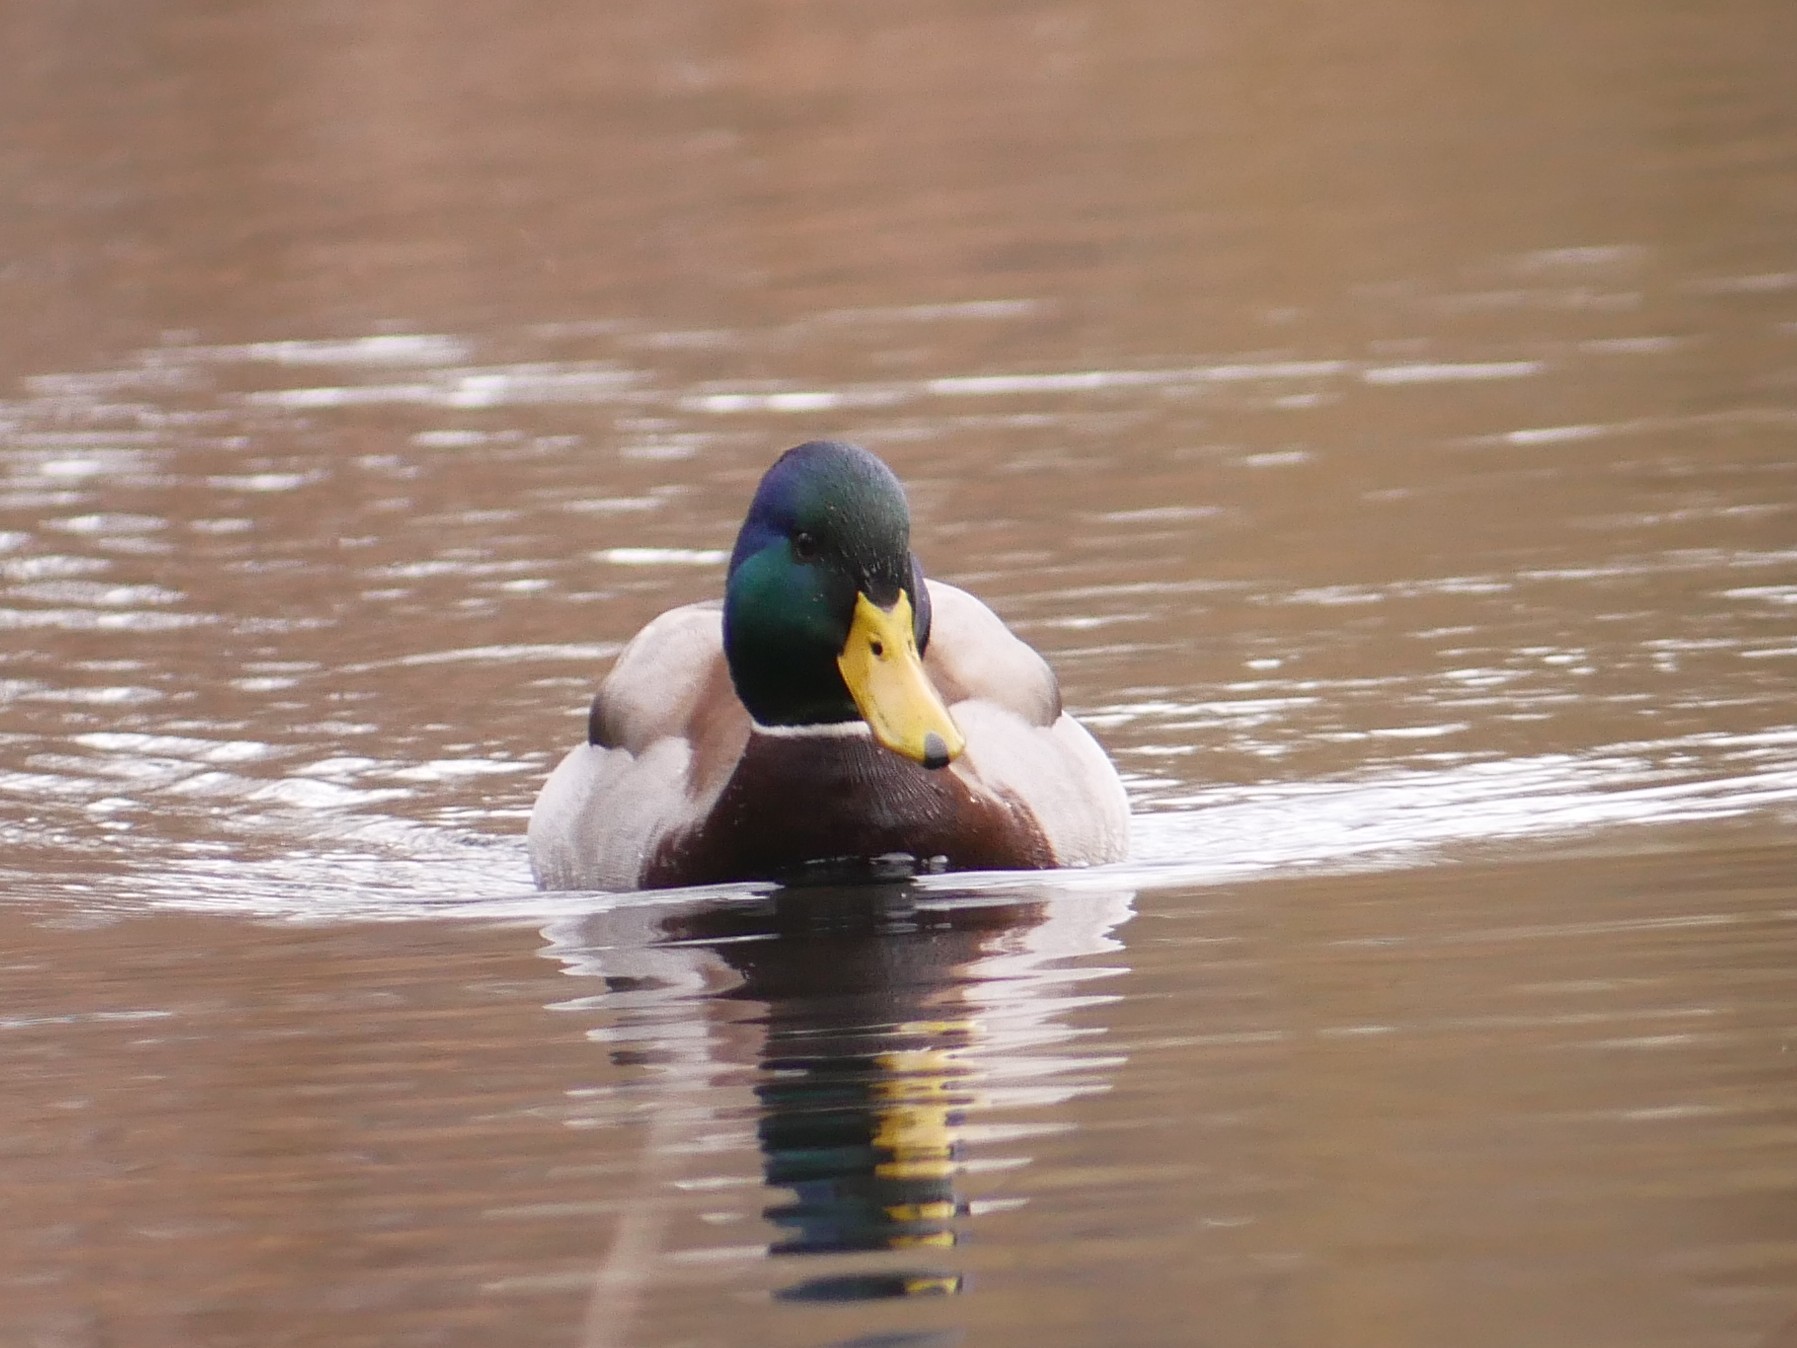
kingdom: Animalia
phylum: Chordata
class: Aves
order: Anseriformes
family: Anatidae
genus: Anas
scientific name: Anas platyrhynchos
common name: Mallard
